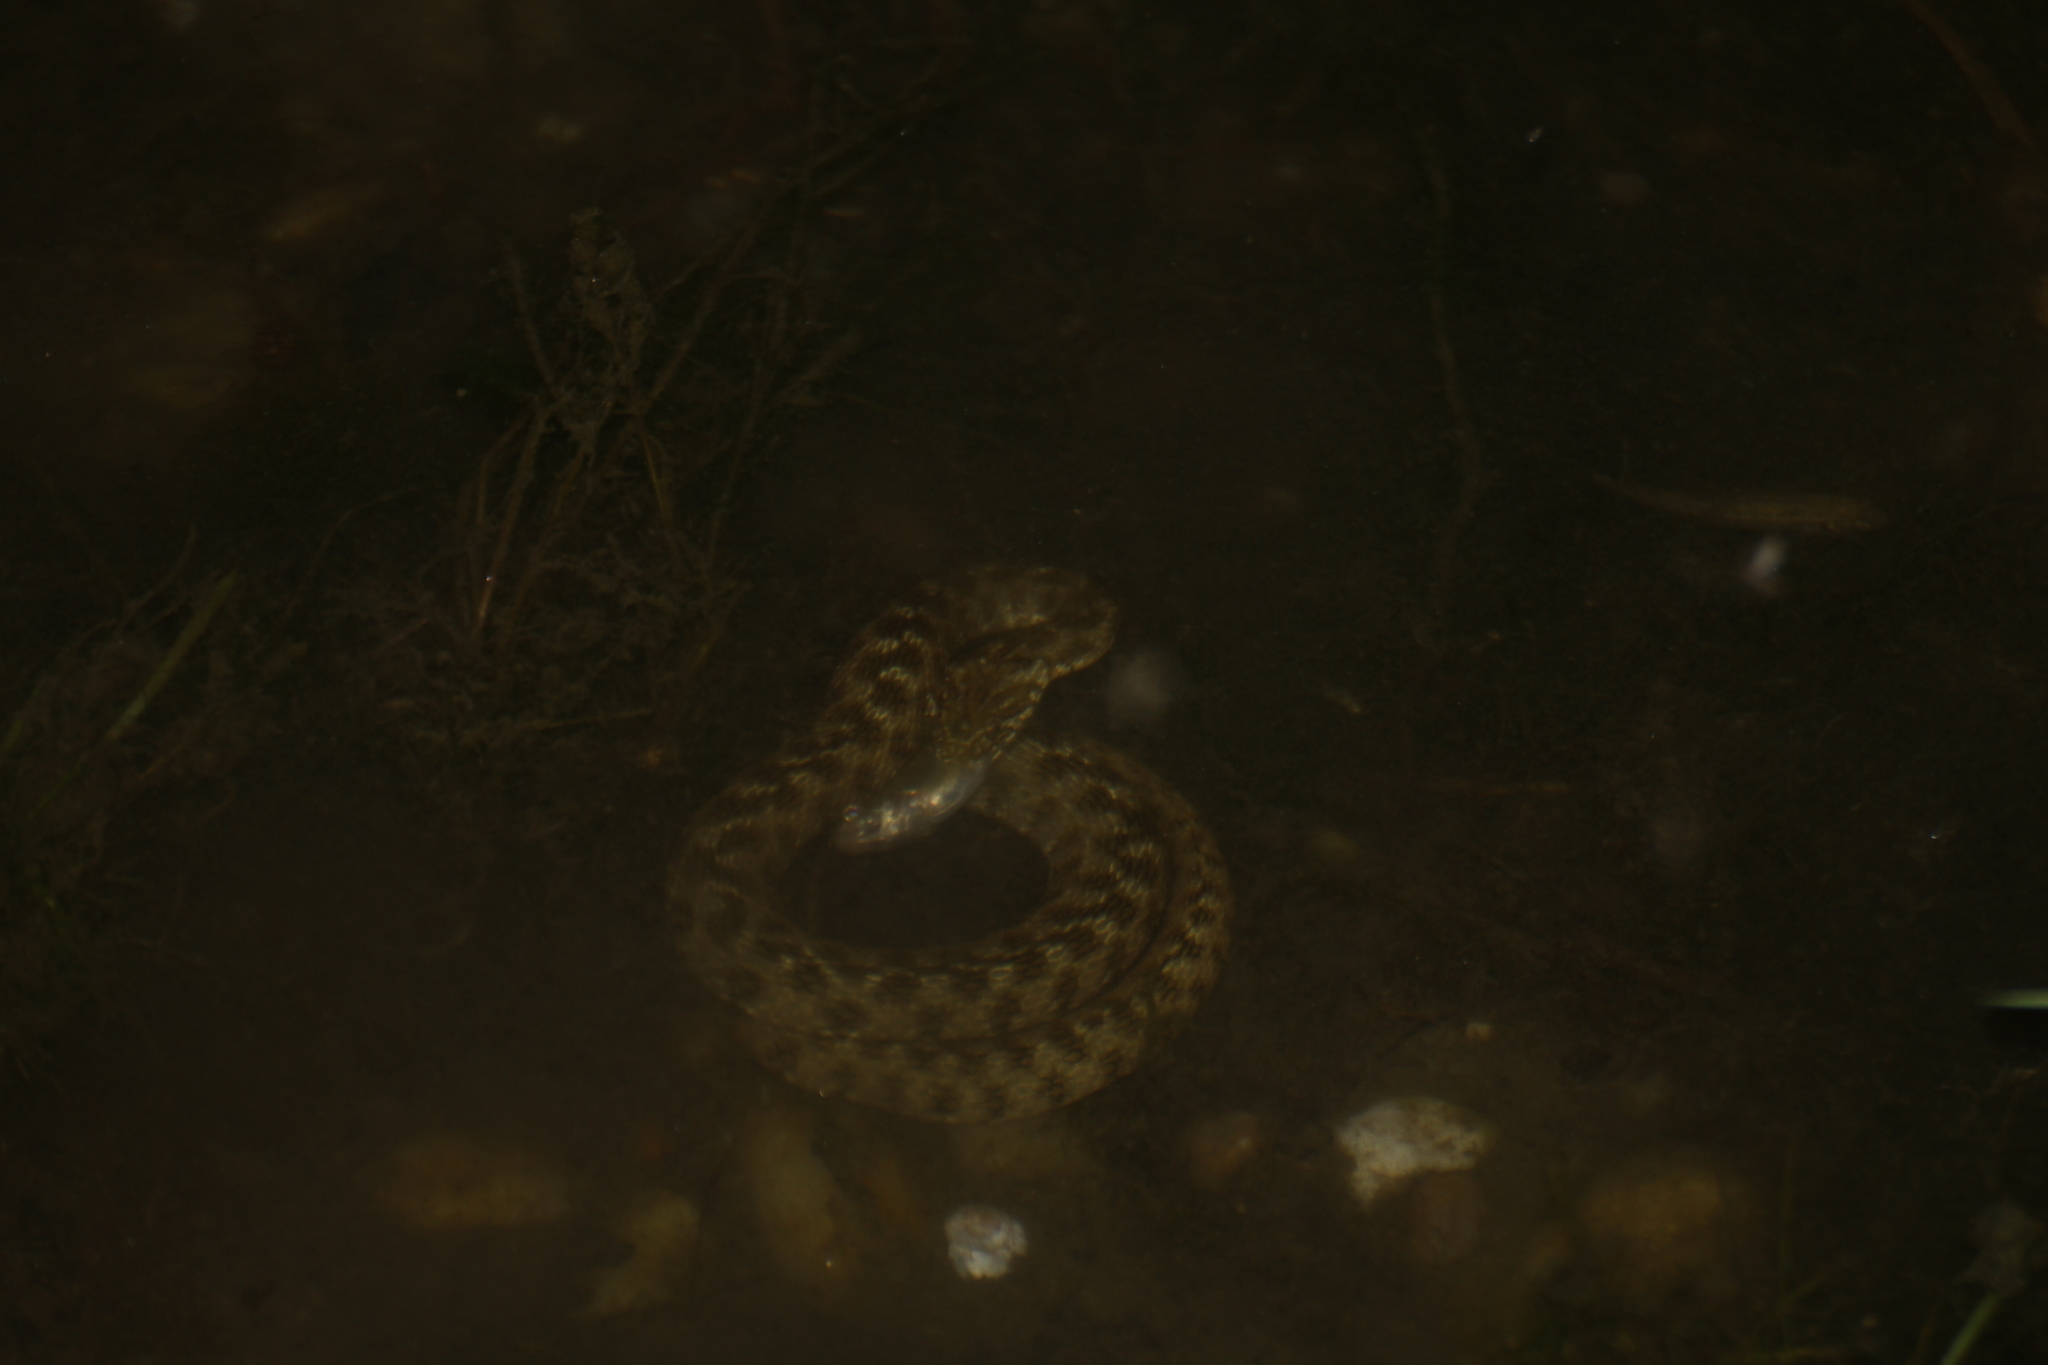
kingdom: Animalia
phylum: Chordata
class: Squamata
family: Colubridae
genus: Natrix
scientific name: Natrix maura
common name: Viperine water snake
